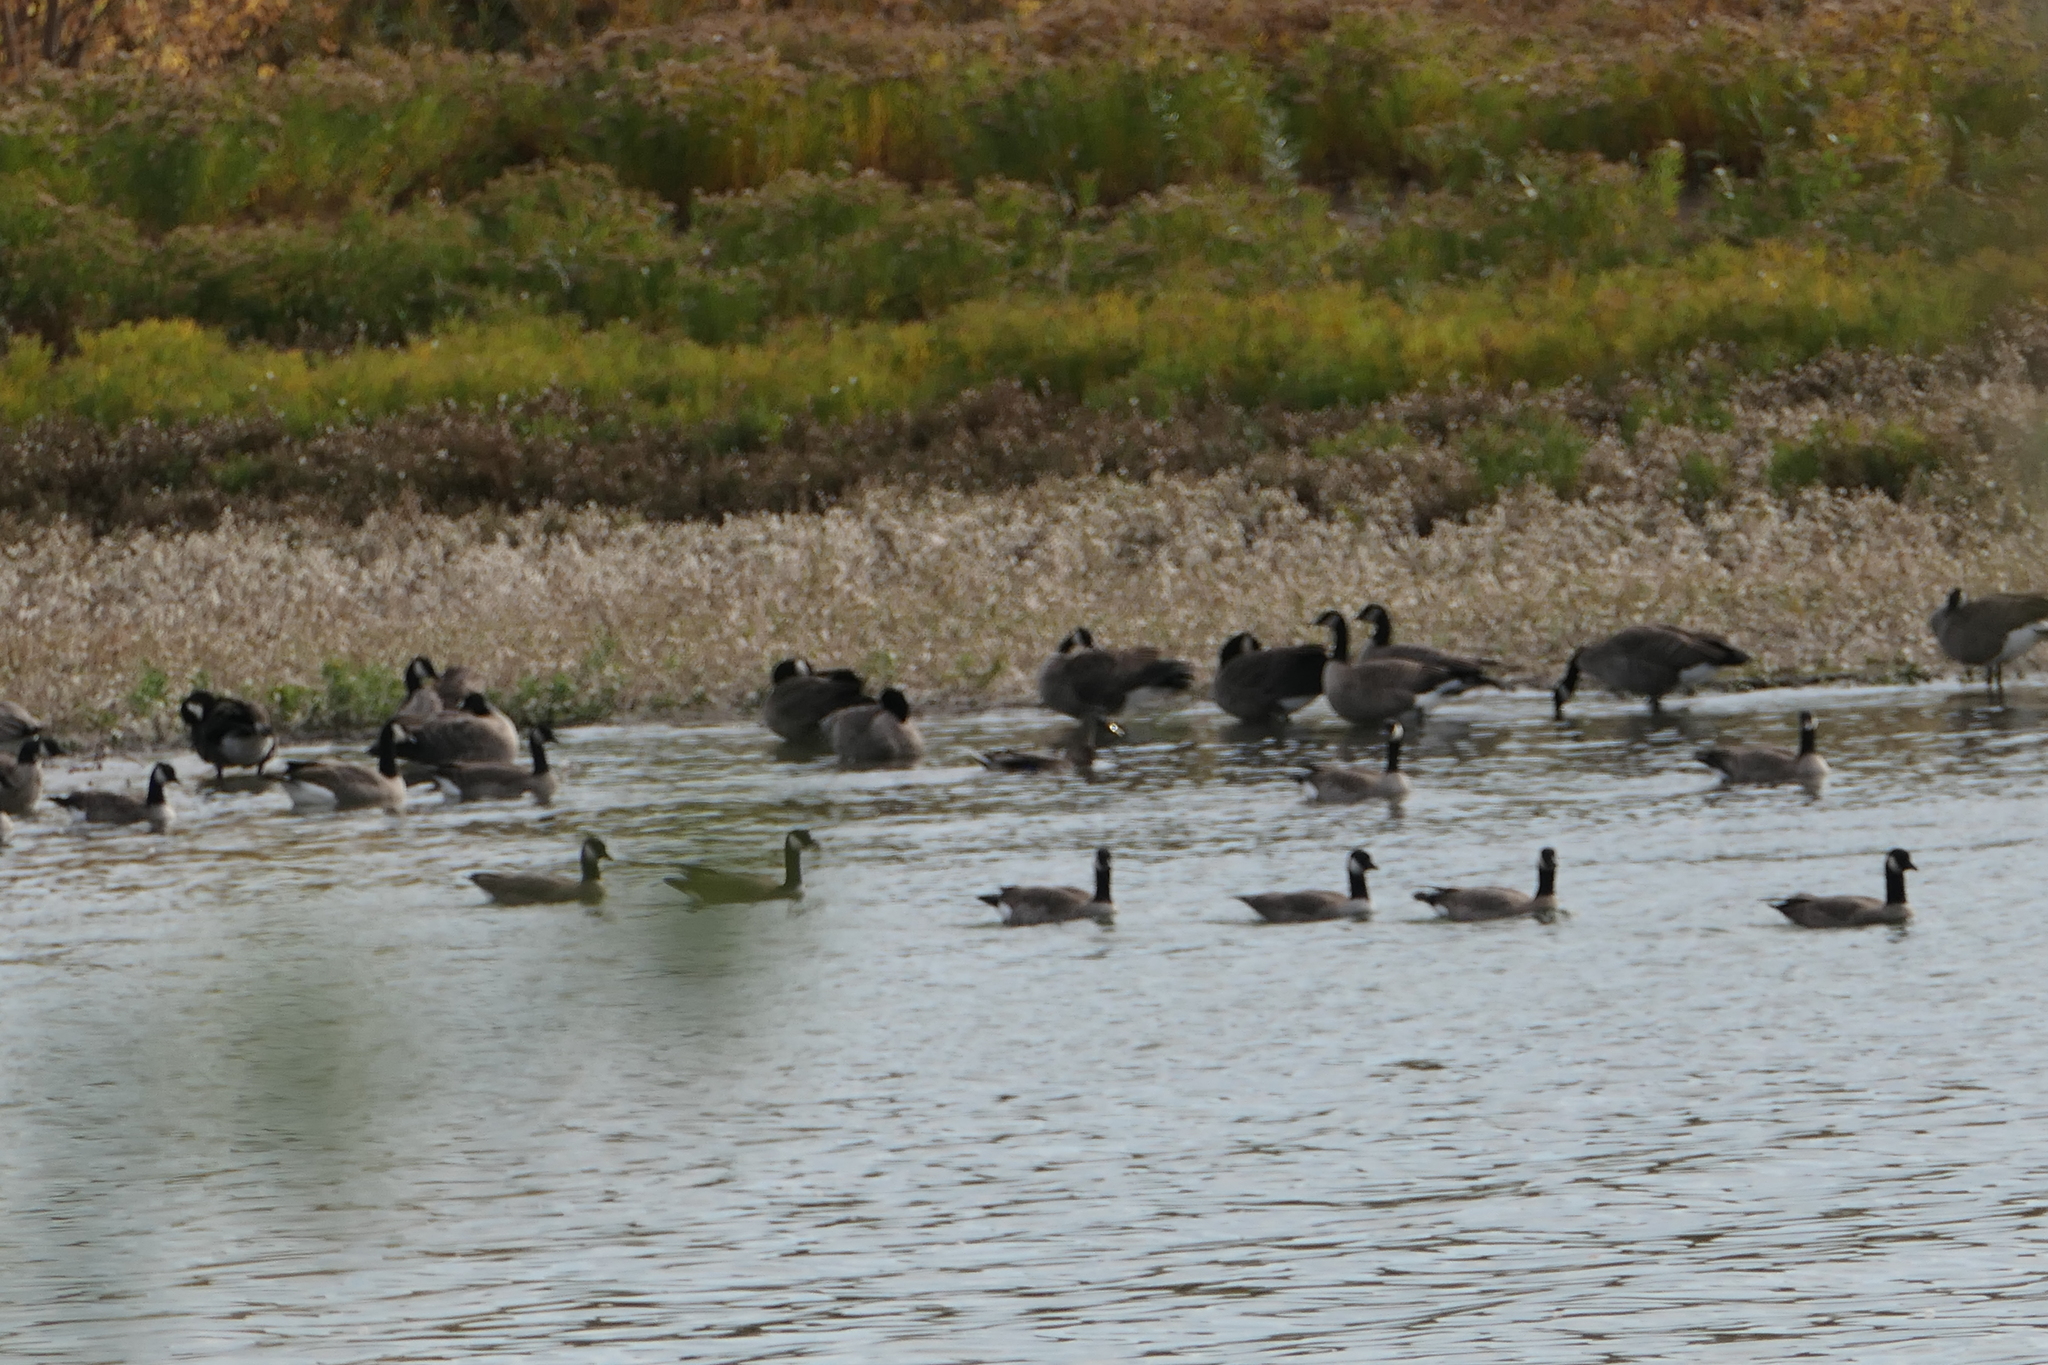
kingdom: Animalia
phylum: Chordata
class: Aves
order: Anseriformes
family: Anatidae
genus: Branta
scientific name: Branta hutchinsii
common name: Cackling goose
